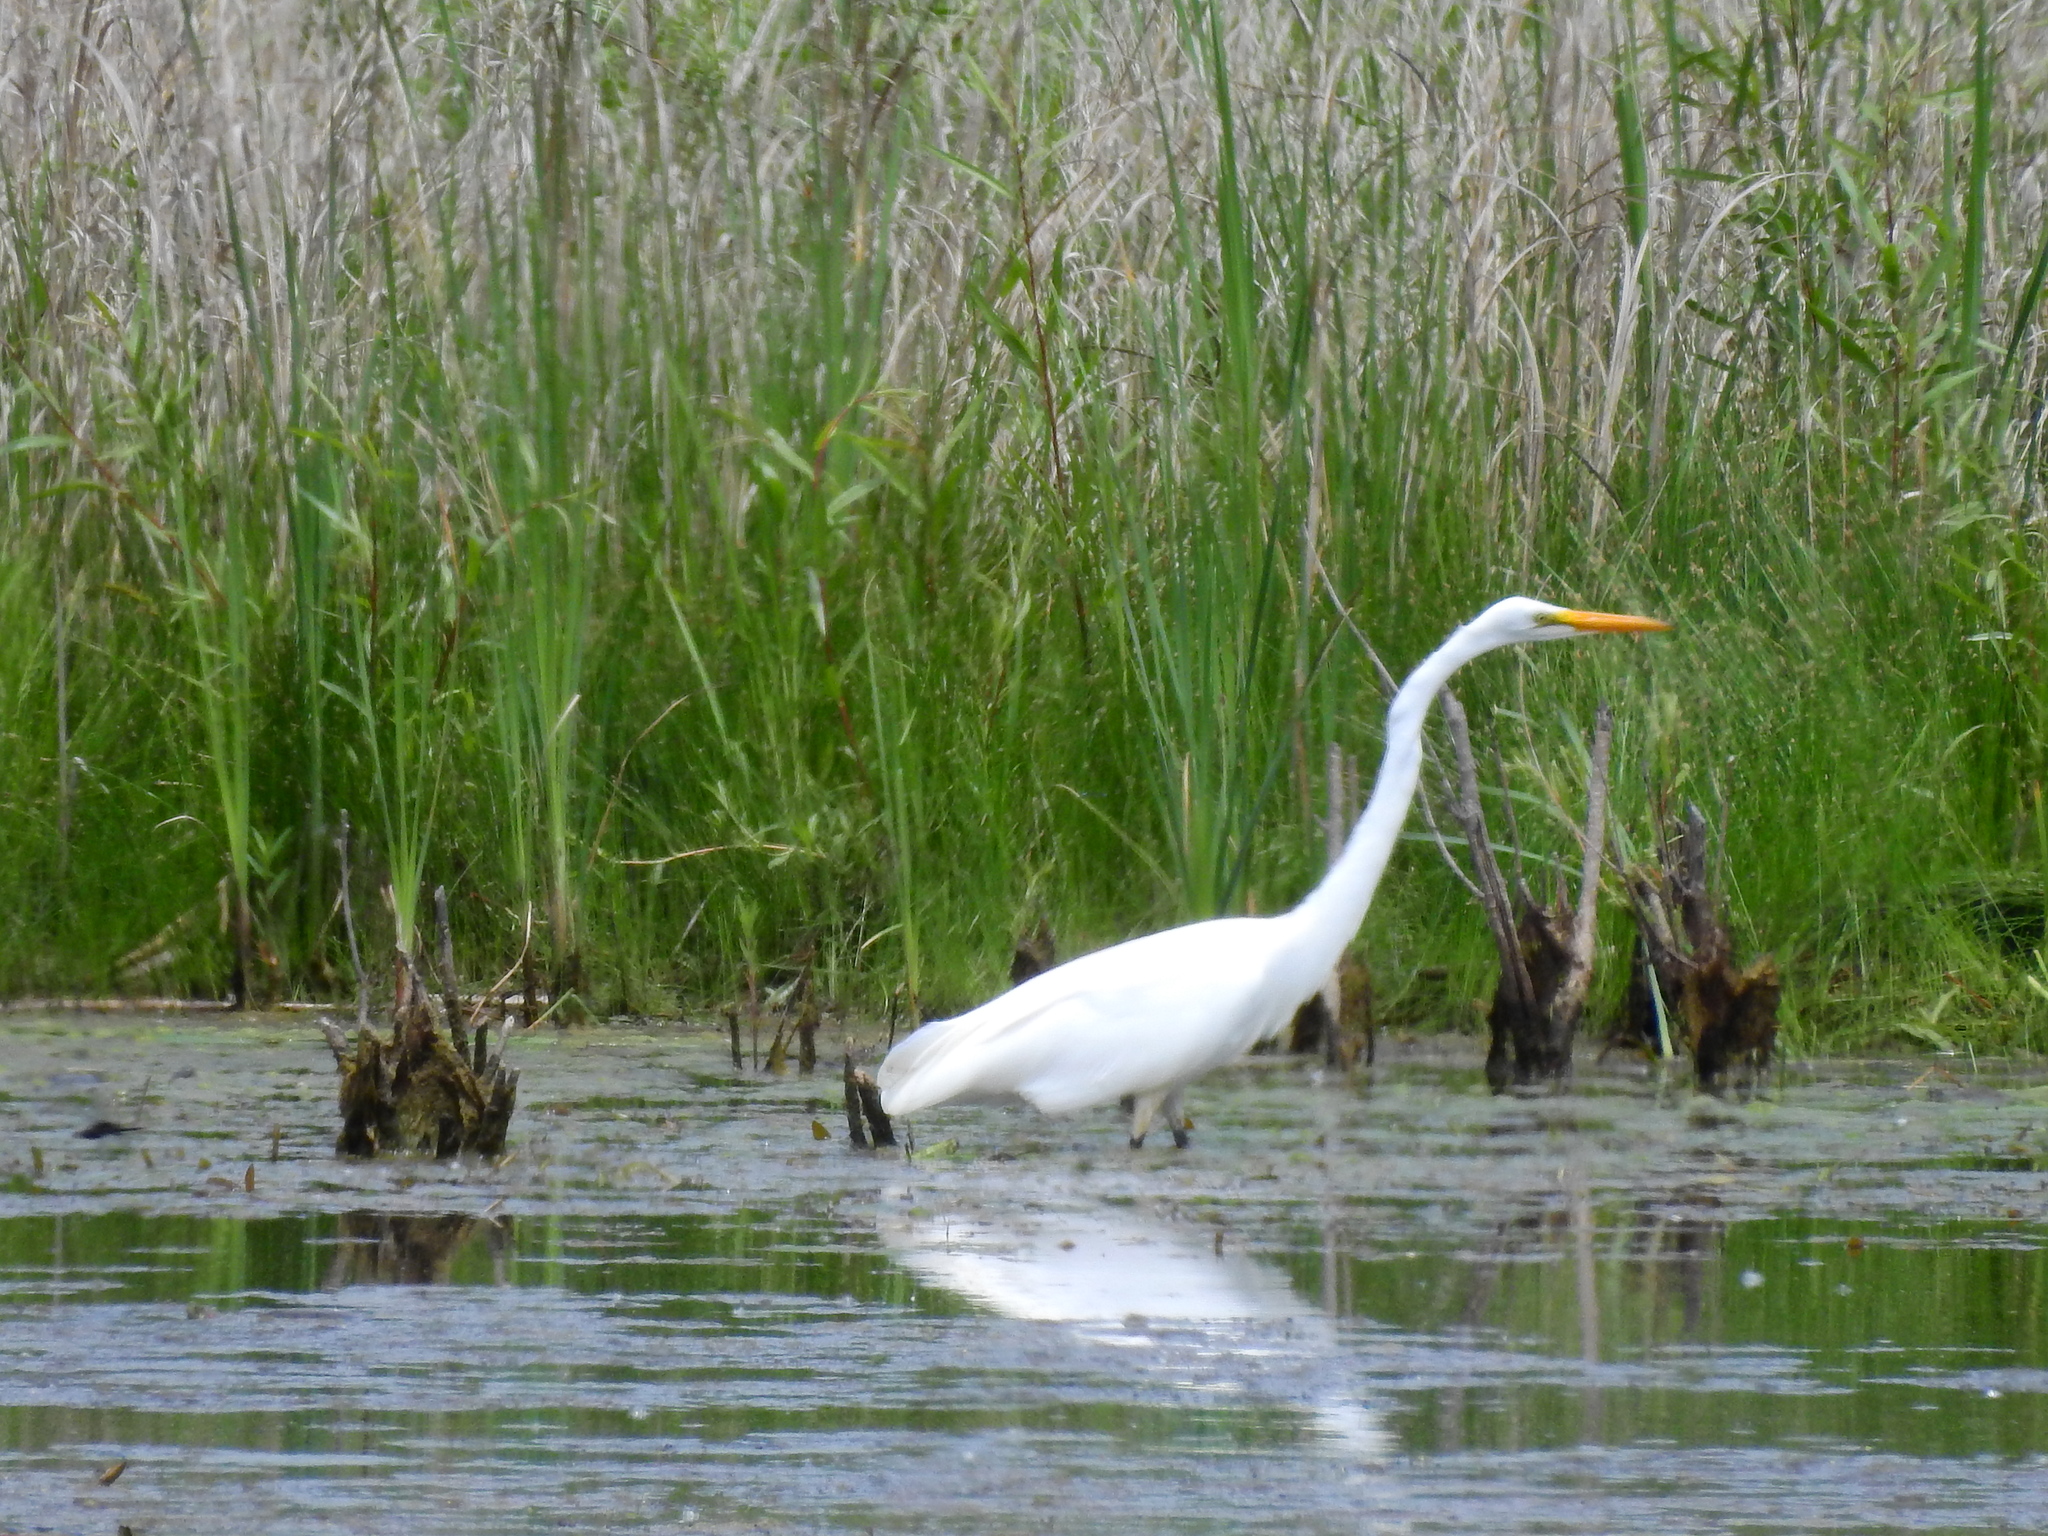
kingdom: Animalia
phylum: Chordata
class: Aves
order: Pelecaniformes
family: Ardeidae
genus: Ardea
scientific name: Ardea alba
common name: Great egret
